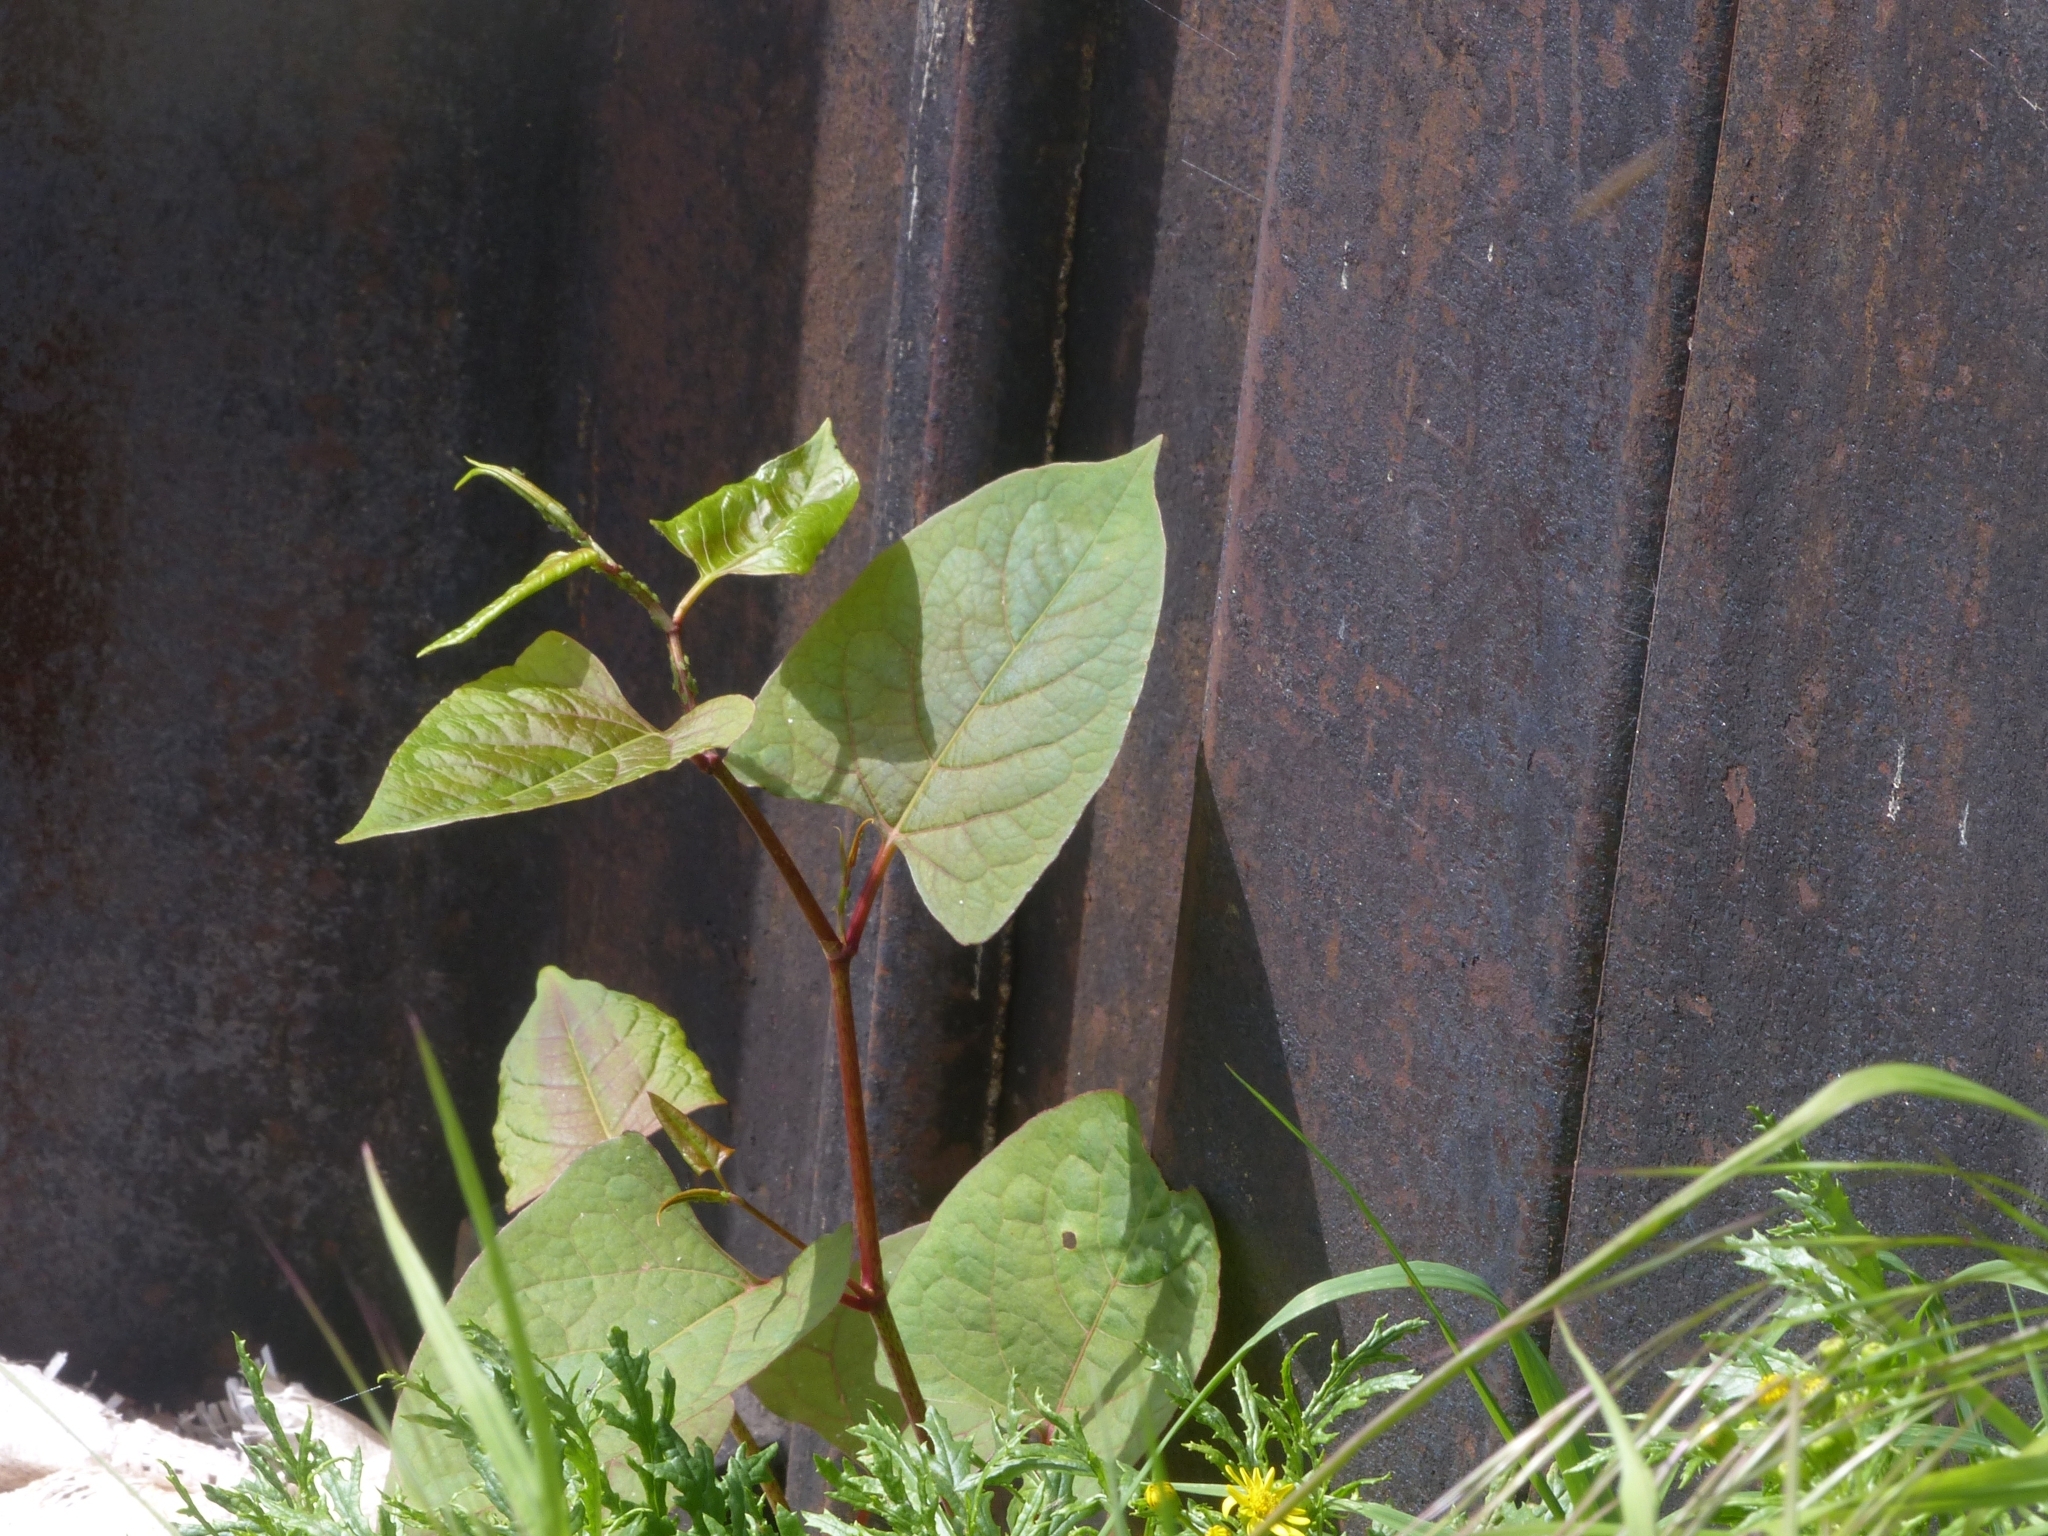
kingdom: Plantae
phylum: Tracheophyta
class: Magnoliopsida
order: Caryophyllales
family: Polygonaceae
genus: Reynoutria
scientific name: Reynoutria japonica
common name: Japanese knotweed
